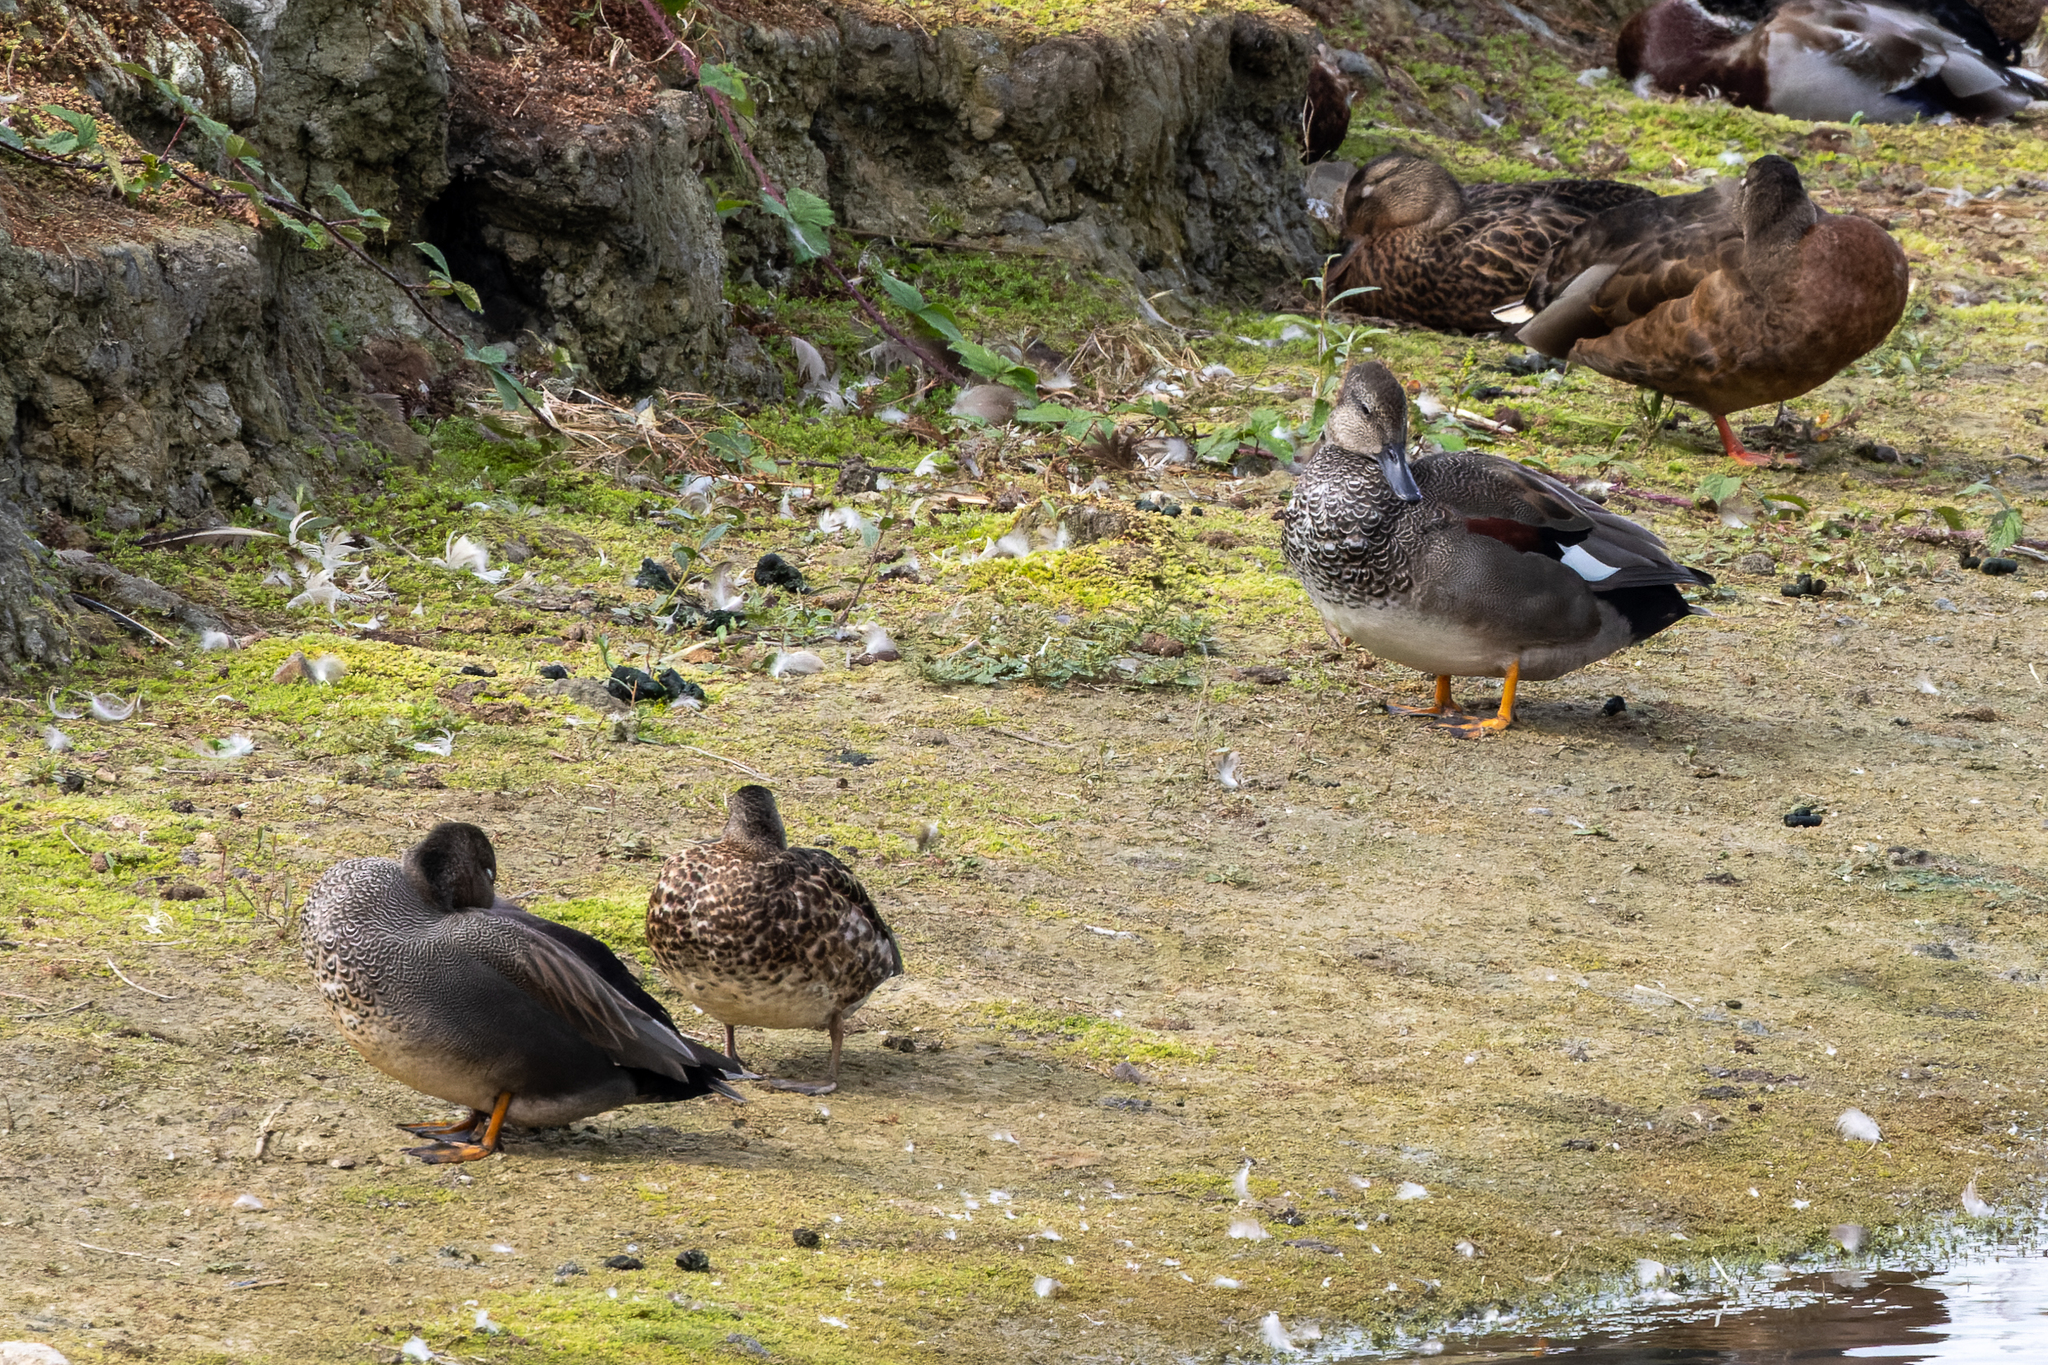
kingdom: Animalia
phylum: Chordata
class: Aves
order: Anseriformes
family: Anatidae
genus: Mareca
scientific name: Mareca strepera
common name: Gadwall
